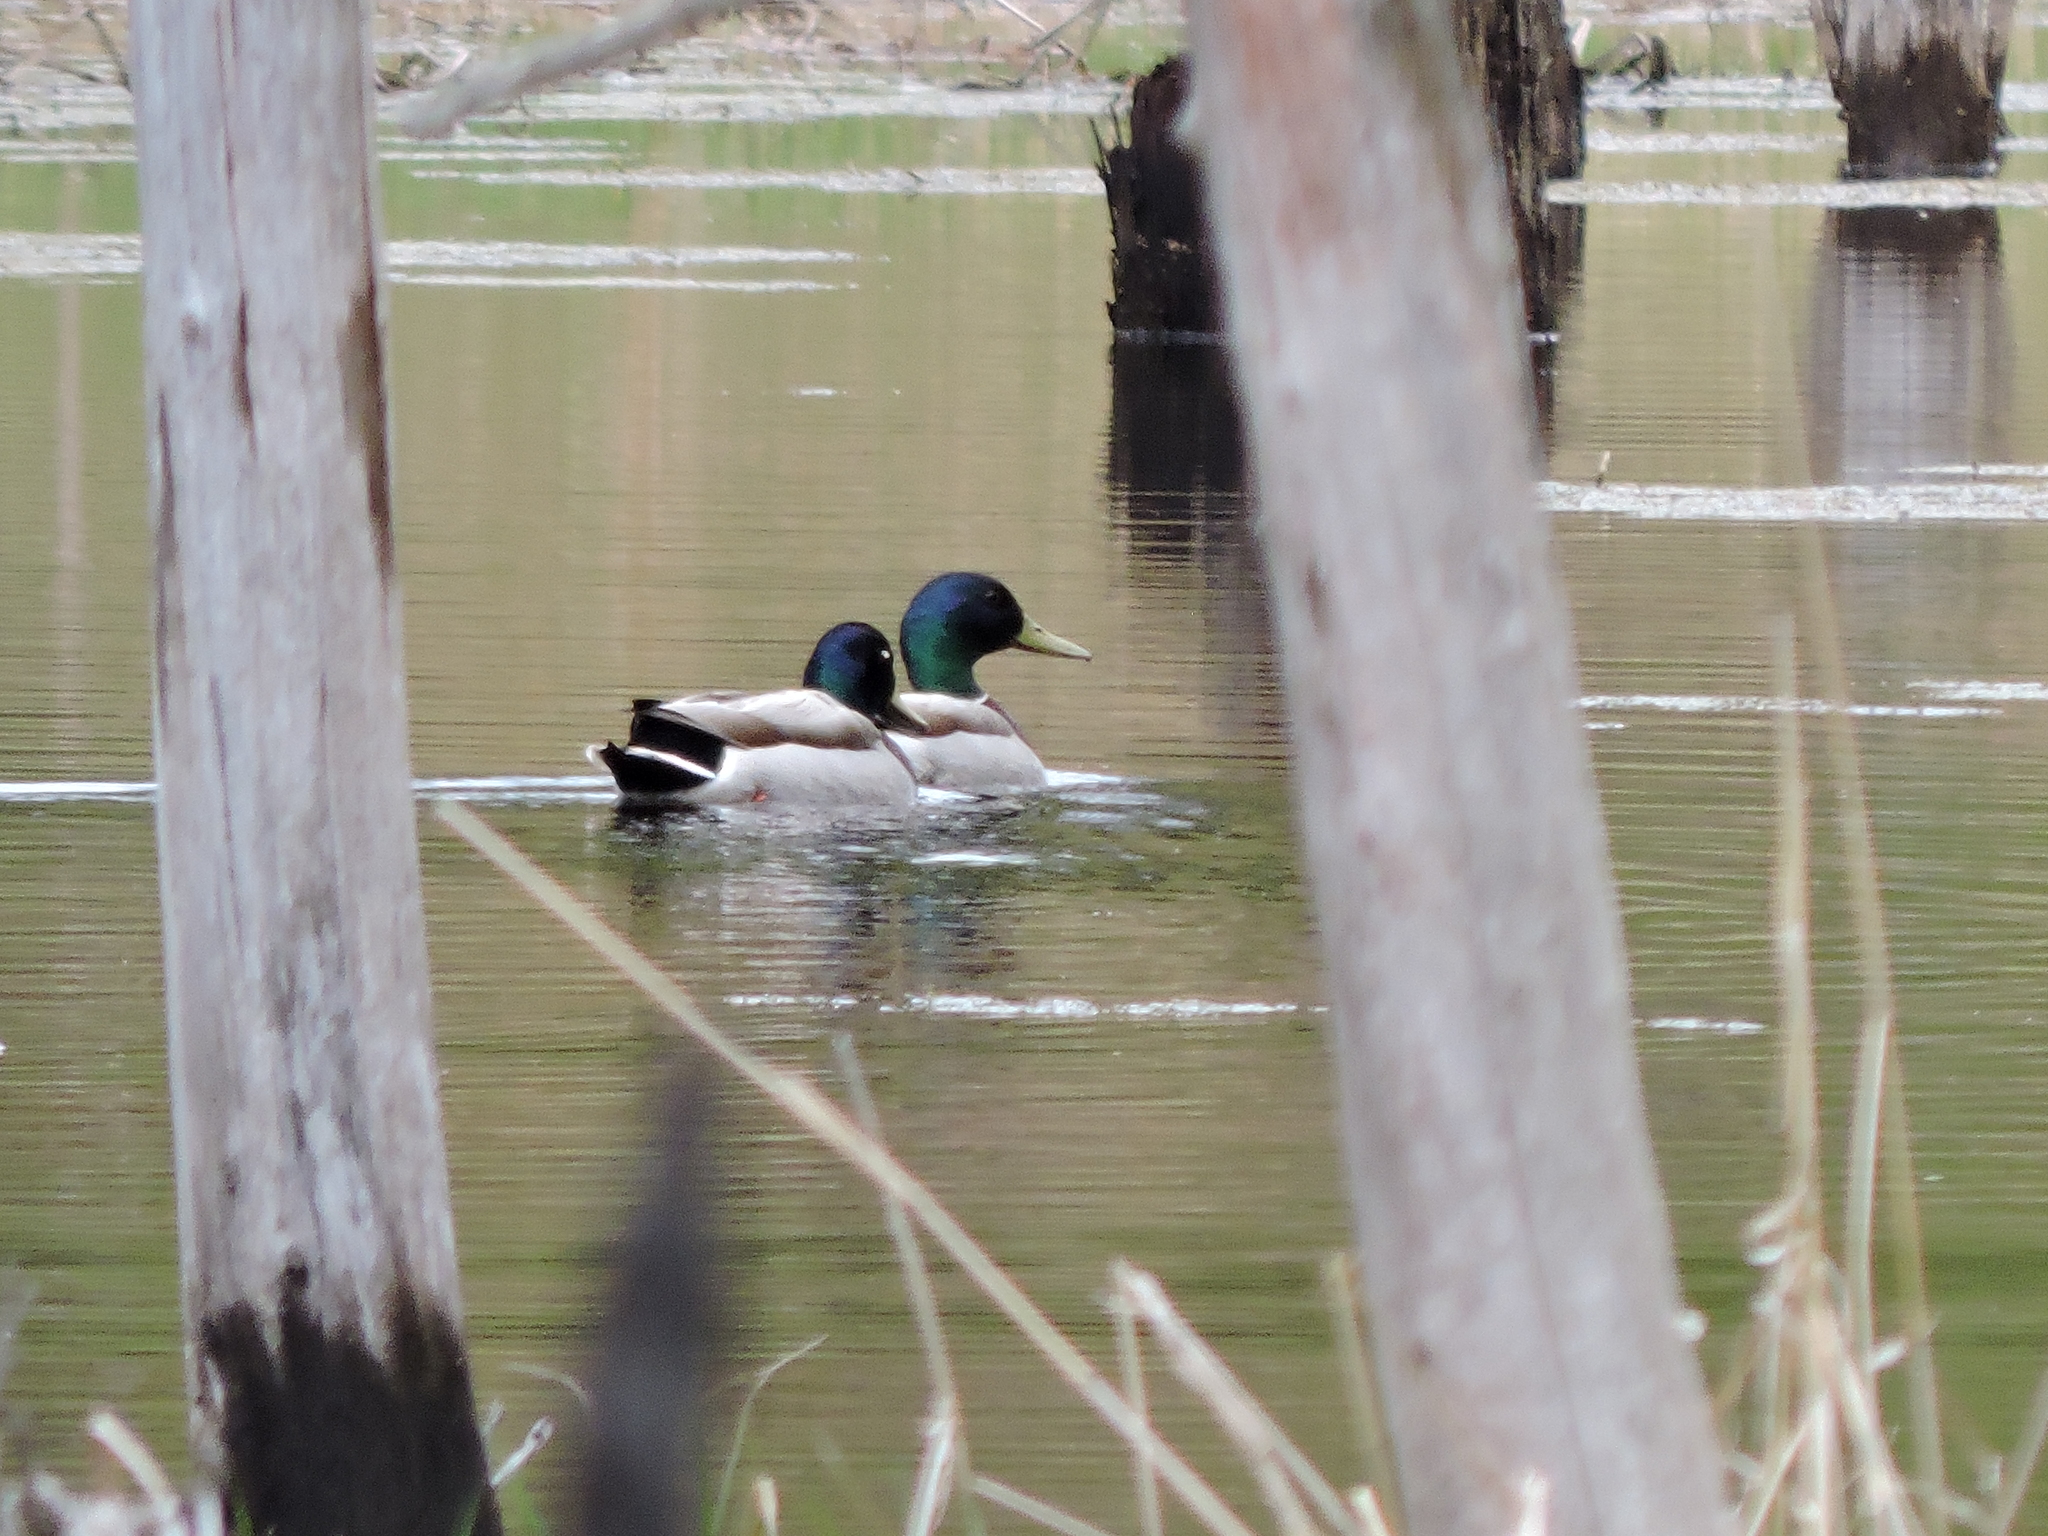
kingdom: Animalia
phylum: Chordata
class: Aves
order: Anseriformes
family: Anatidae
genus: Anas
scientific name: Anas platyrhynchos
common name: Mallard
